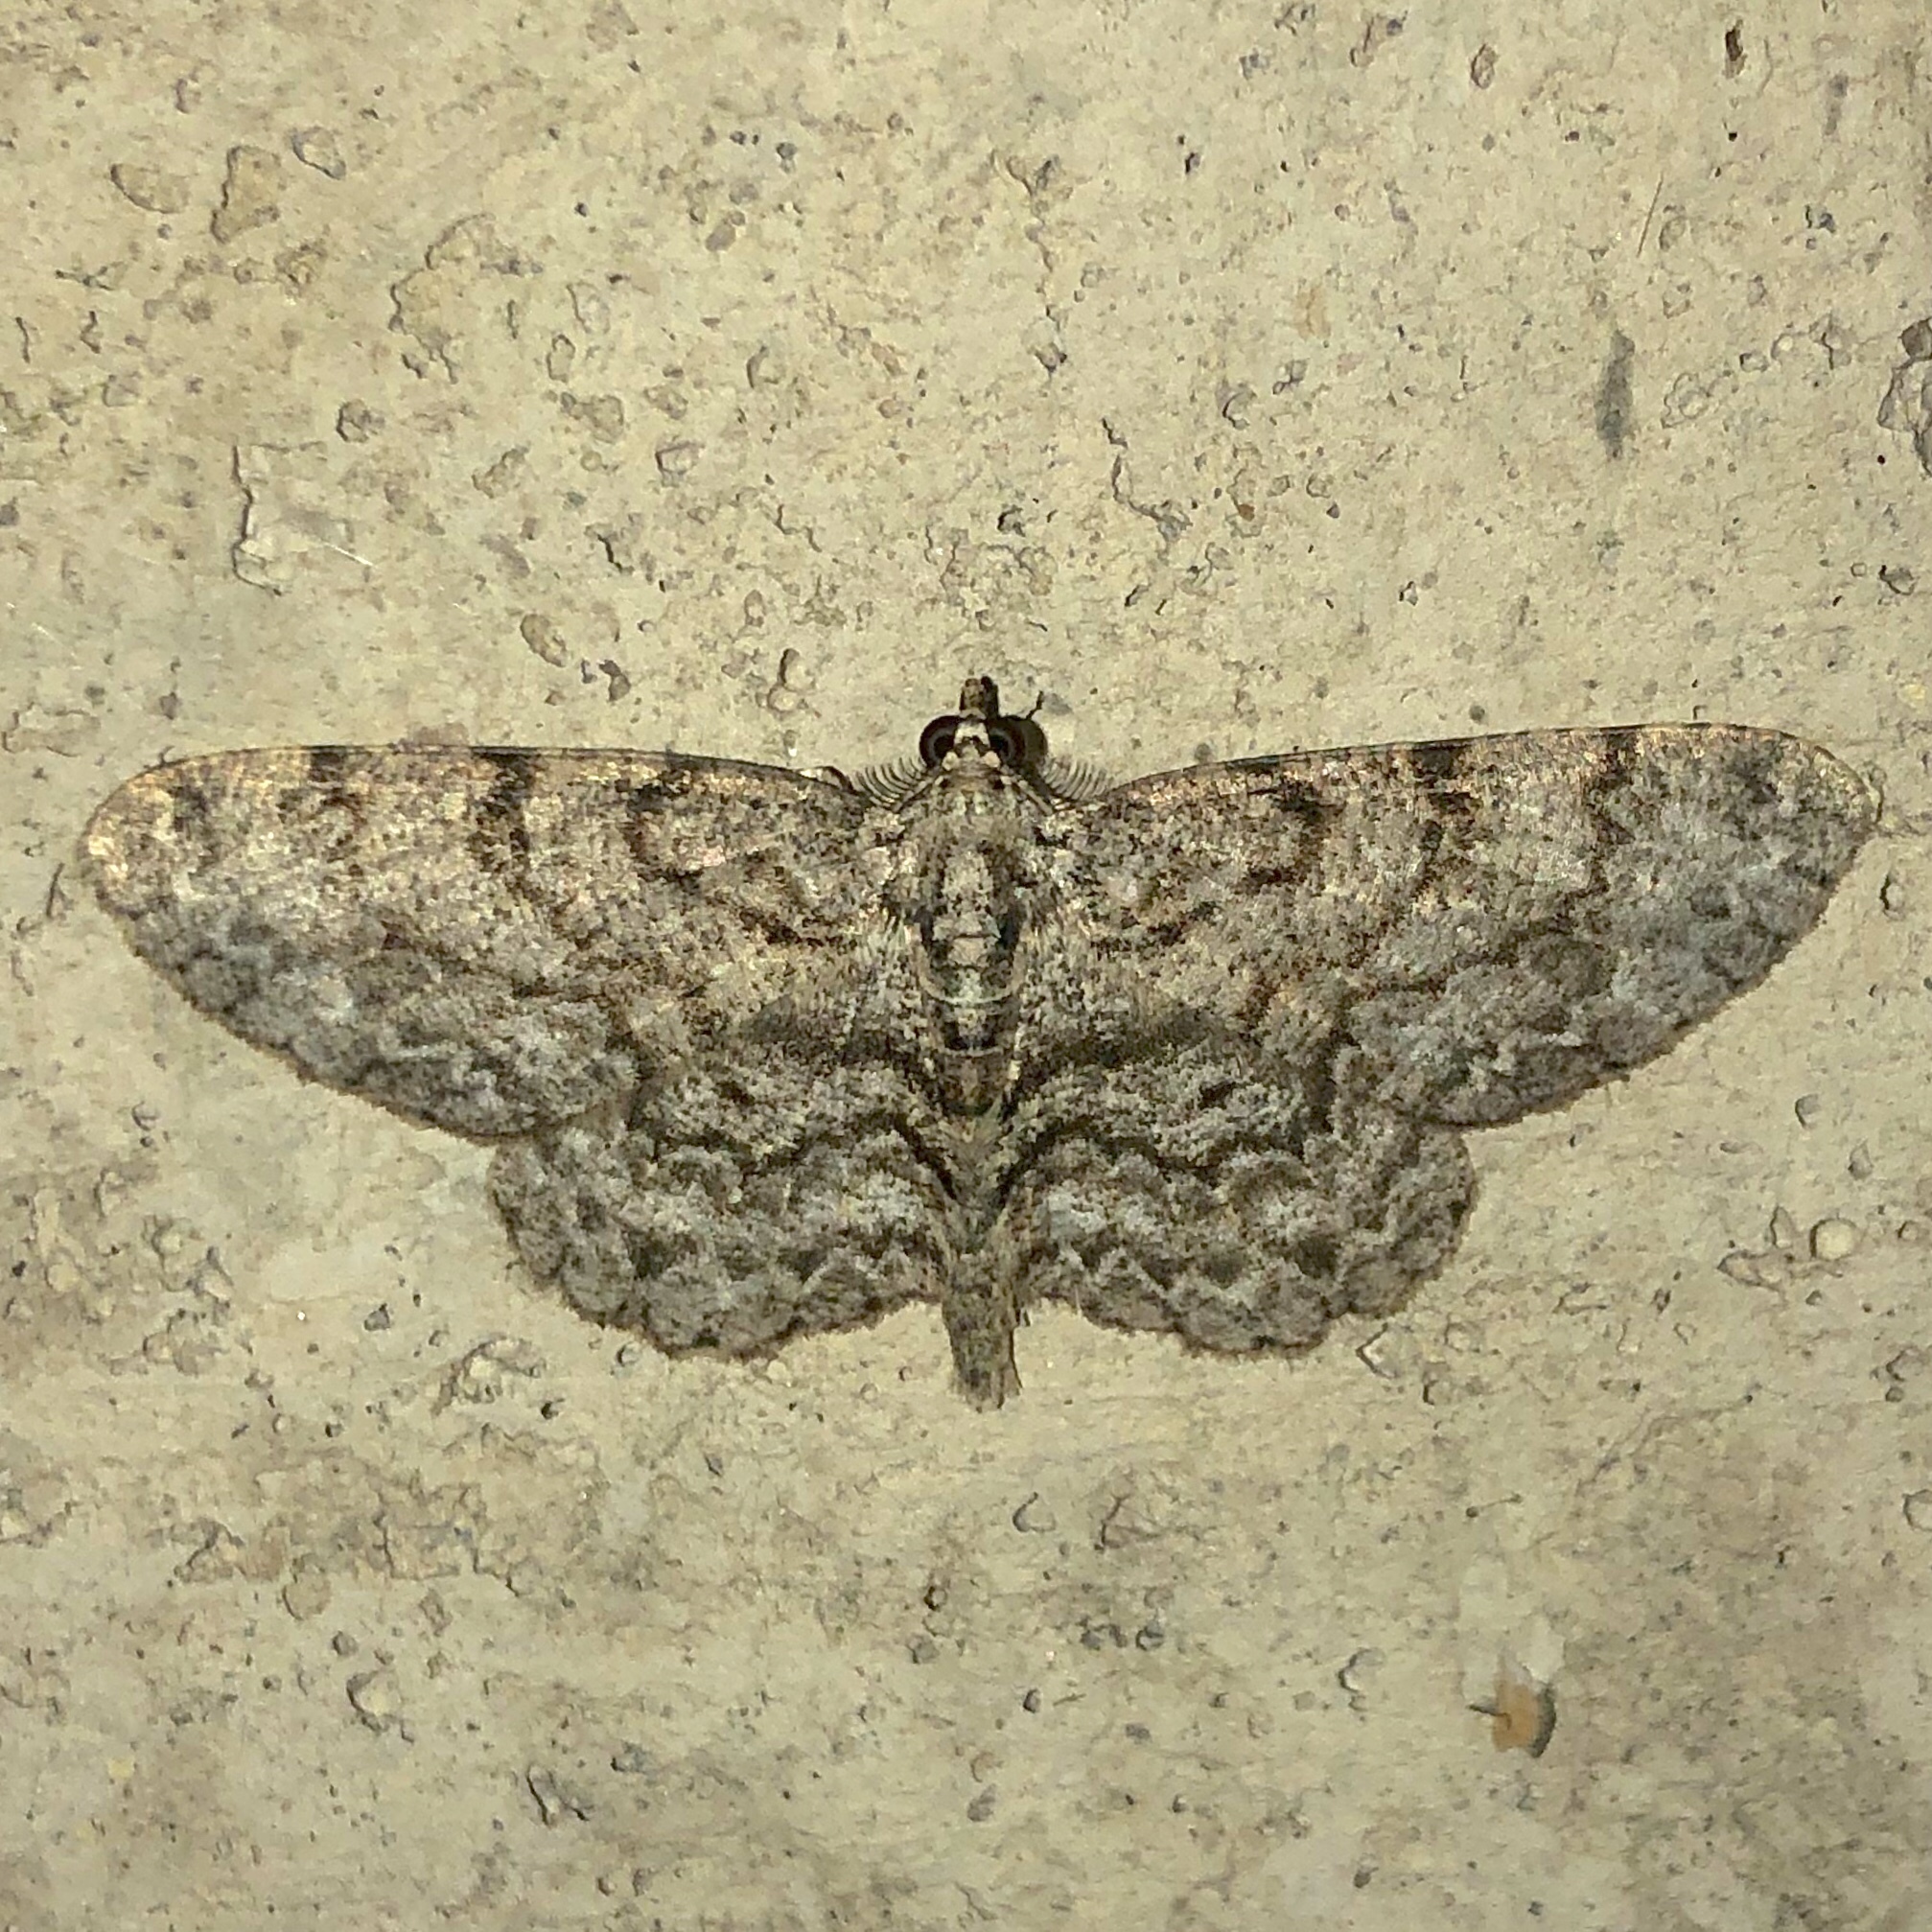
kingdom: Animalia
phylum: Arthropoda
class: Insecta
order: Lepidoptera
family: Geometridae
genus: Protoboarmia
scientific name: Protoboarmia porcelaria
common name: Porcelain gray
